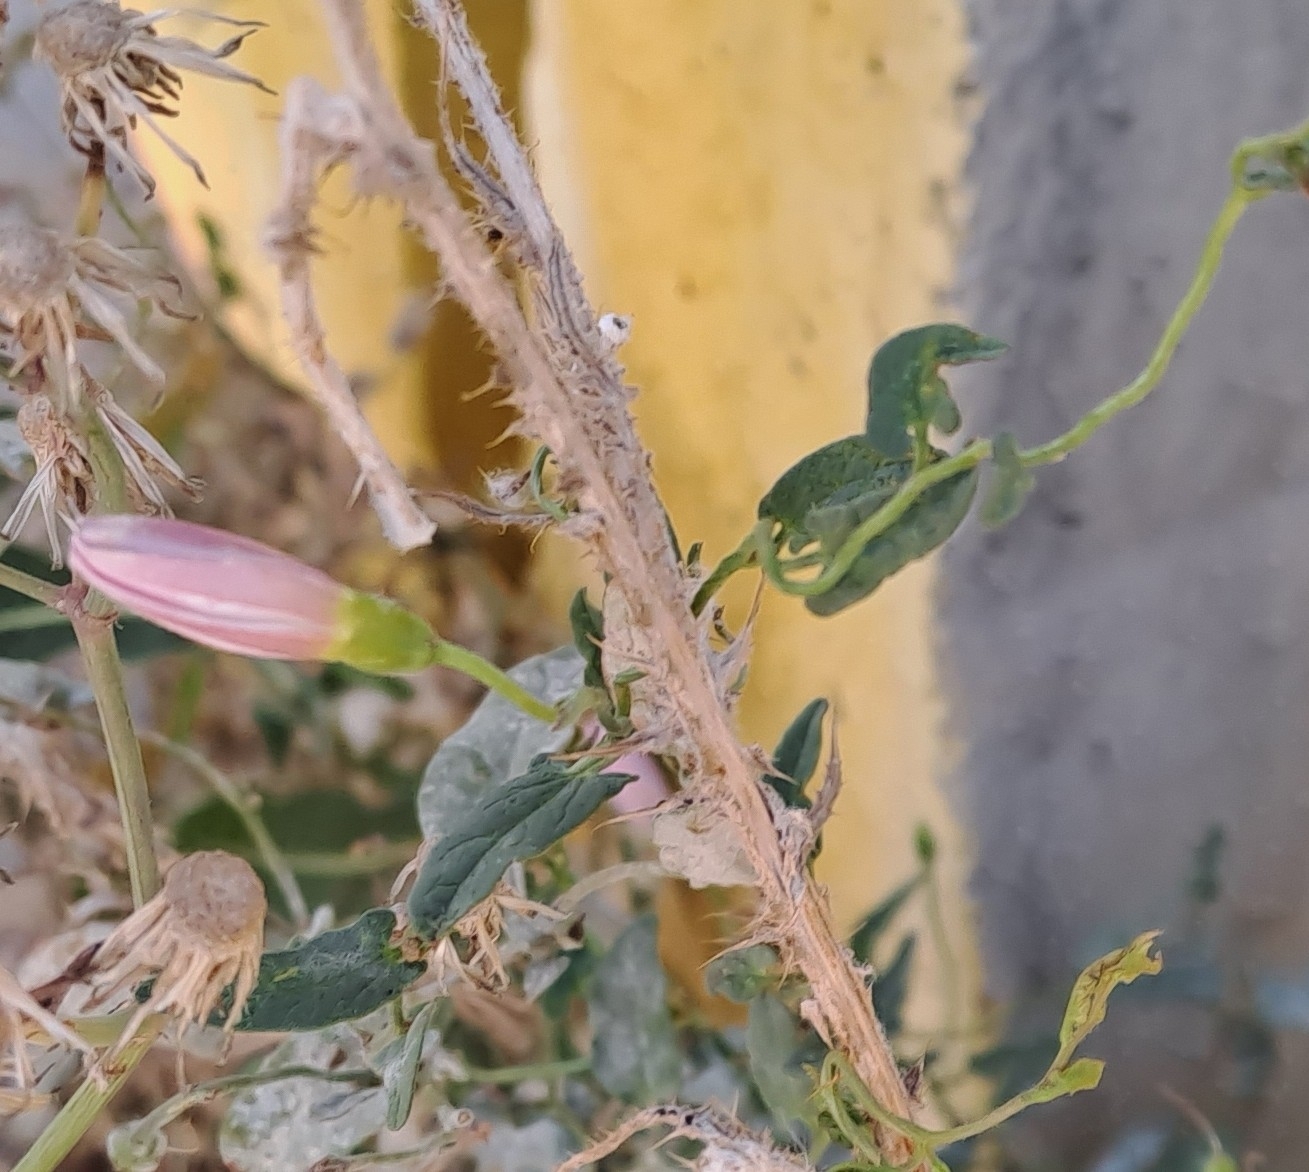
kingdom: Plantae
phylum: Tracheophyta
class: Magnoliopsida
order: Solanales
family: Convolvulaceae
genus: Convolvulus
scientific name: Convolvulus arvensis
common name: Field bindweed
